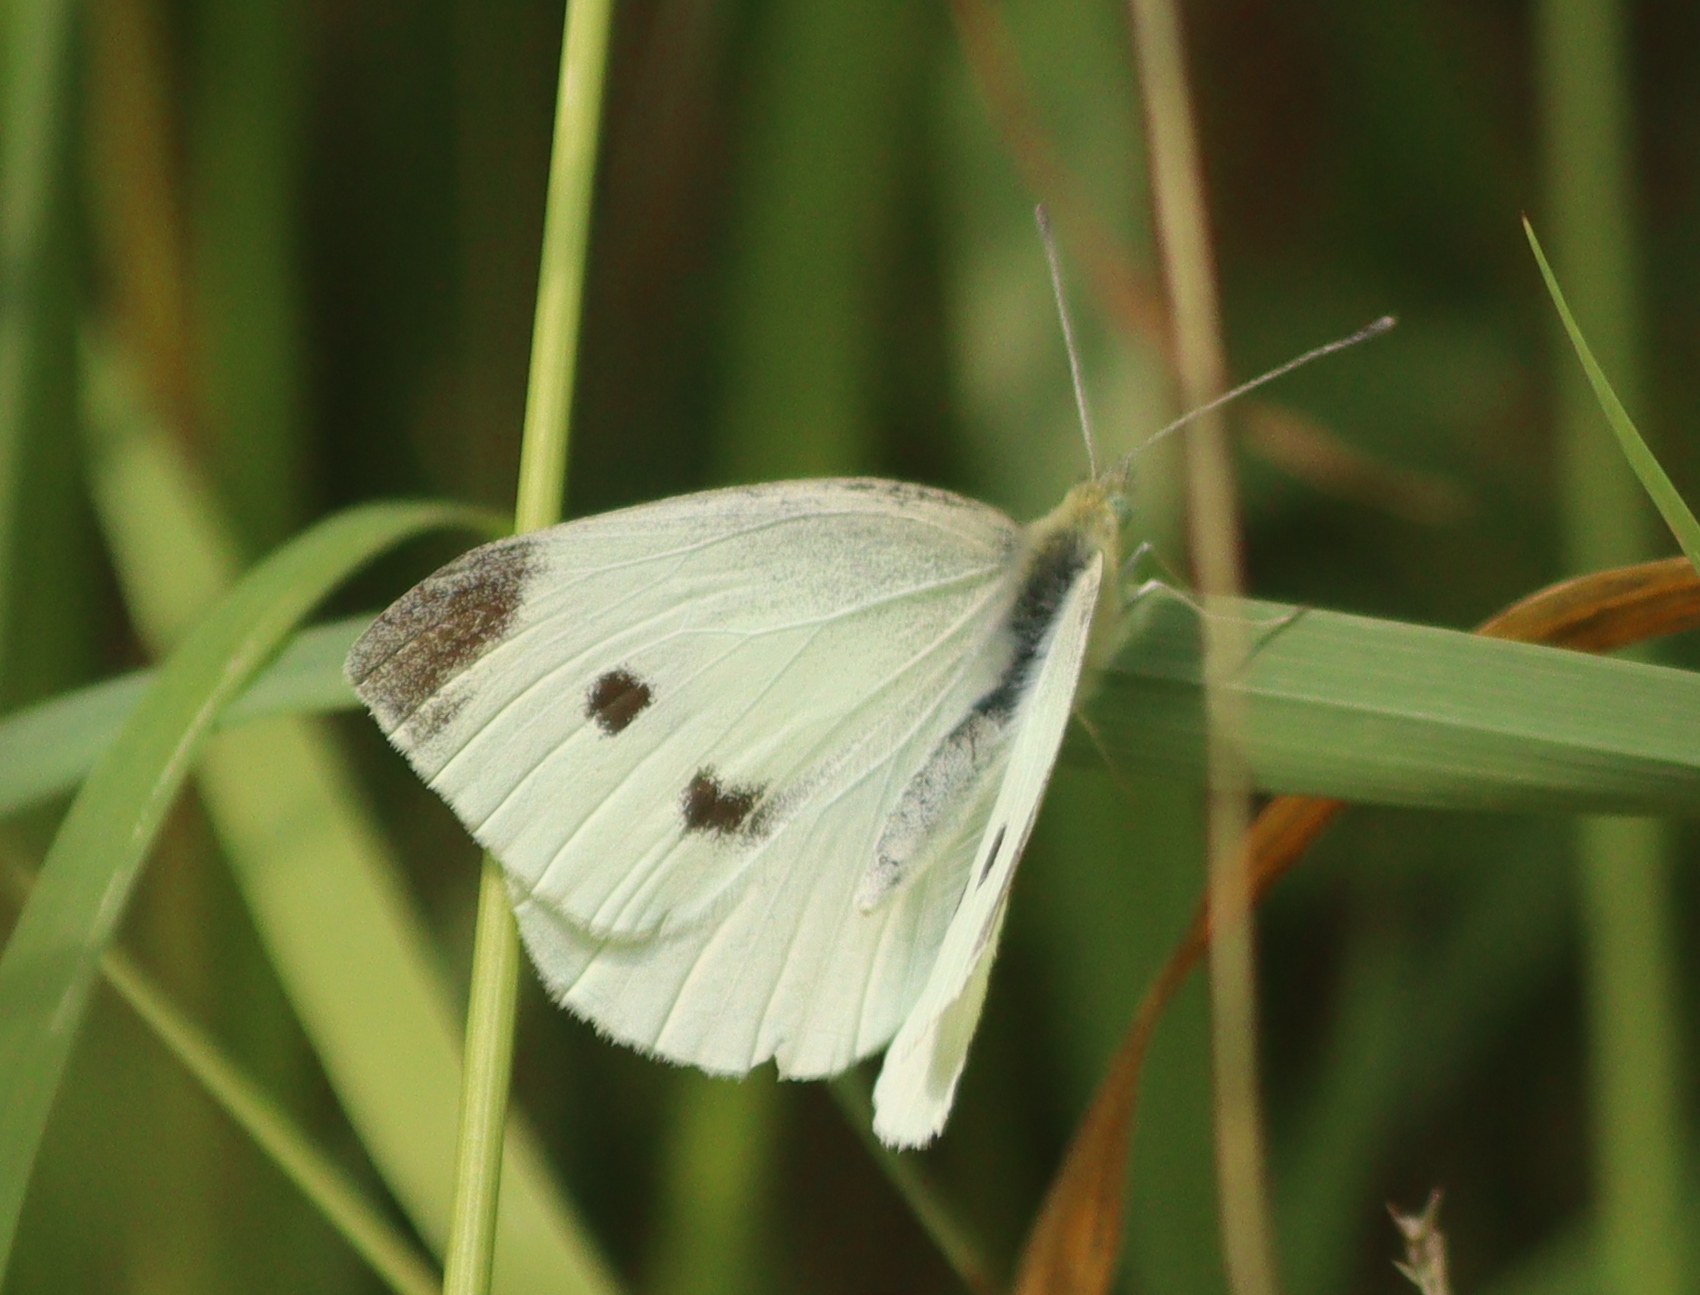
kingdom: Animalia
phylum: Arthropoda
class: Insecta
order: Lepidoptera
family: Pieridae
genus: Pieris
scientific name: Pieris rapae
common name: Small white
